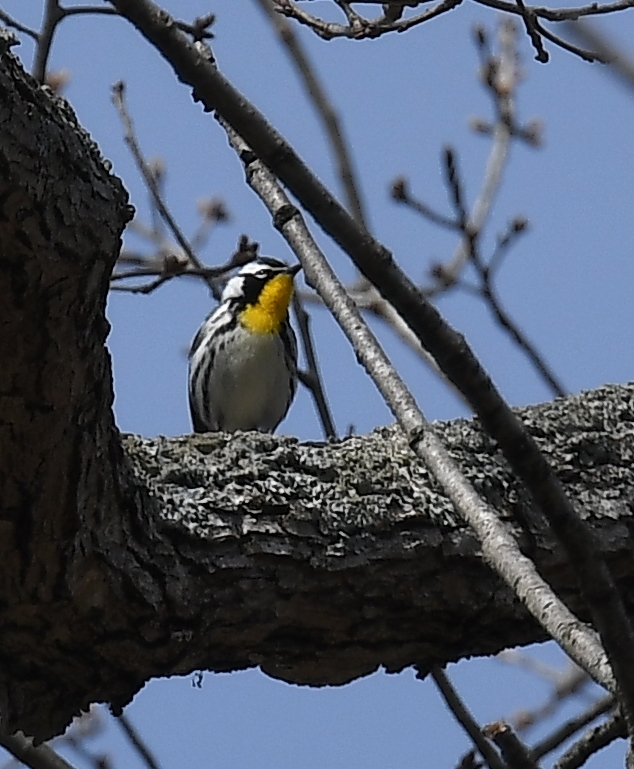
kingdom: Animalia
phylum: Chordata
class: Aves
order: Passeriformes
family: Parulidae
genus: Setophaga
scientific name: Setophaga dominica
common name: Yellow-throated warbler
